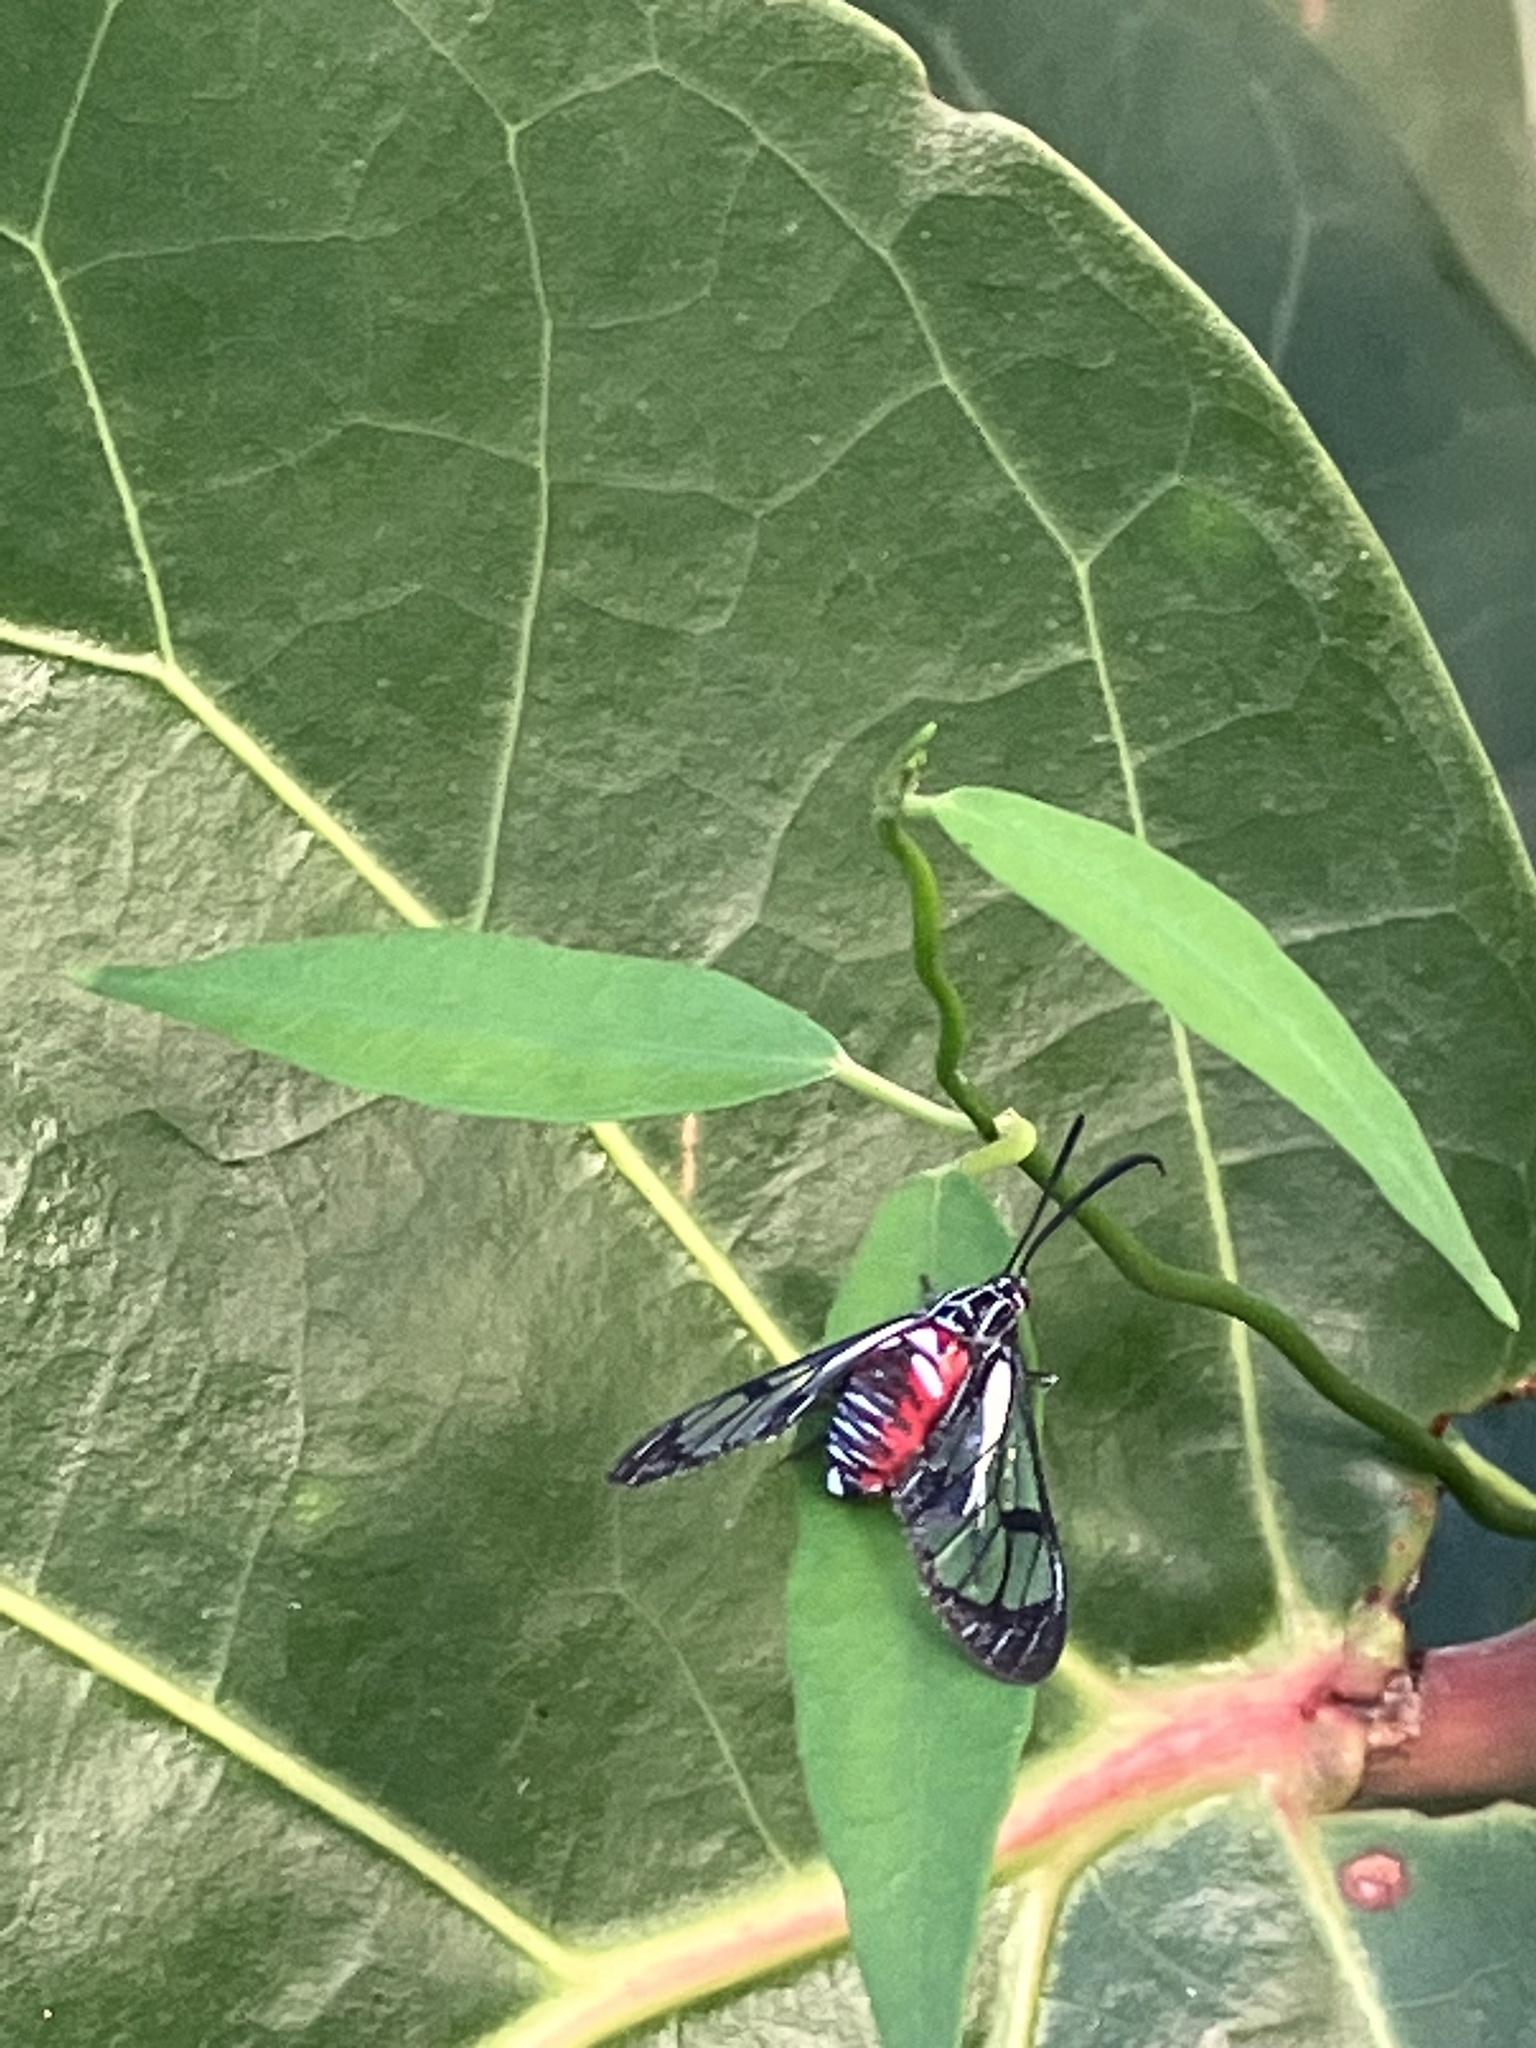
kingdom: Animalia
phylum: Arthropoda
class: Insecta
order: Lepidoptera
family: Erebidae
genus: Eunomia
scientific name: Eunomia caymanensis
